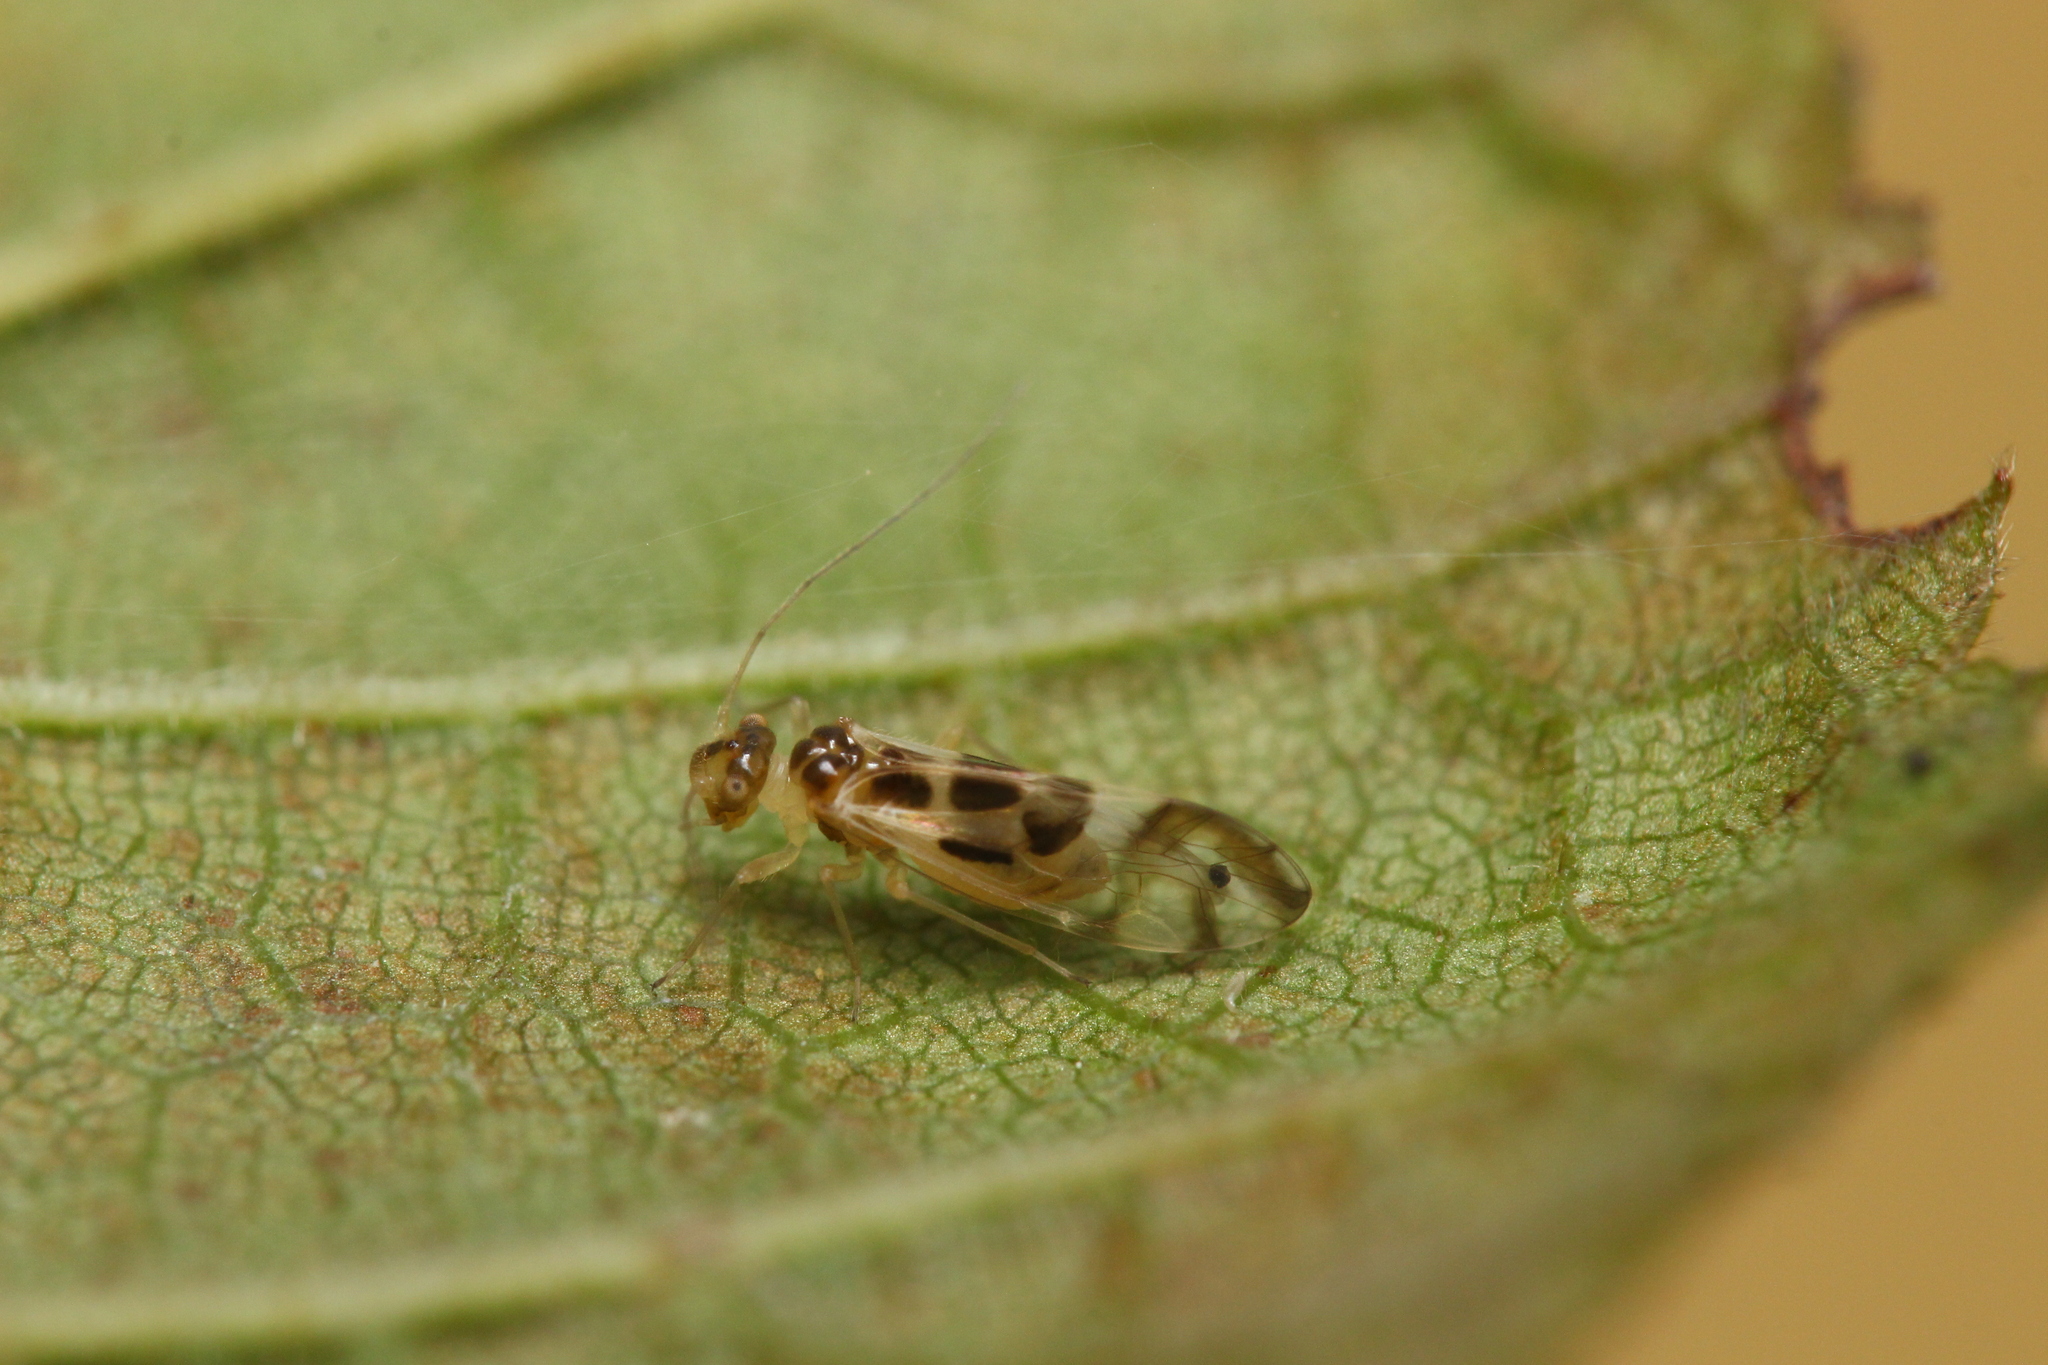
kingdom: Animalia
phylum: Arthropoda
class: Insecta
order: Psocodea
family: Stenopsocidae
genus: Graphopsocus
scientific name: Graphopsocus cruciatus
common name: Lizard bark louse
